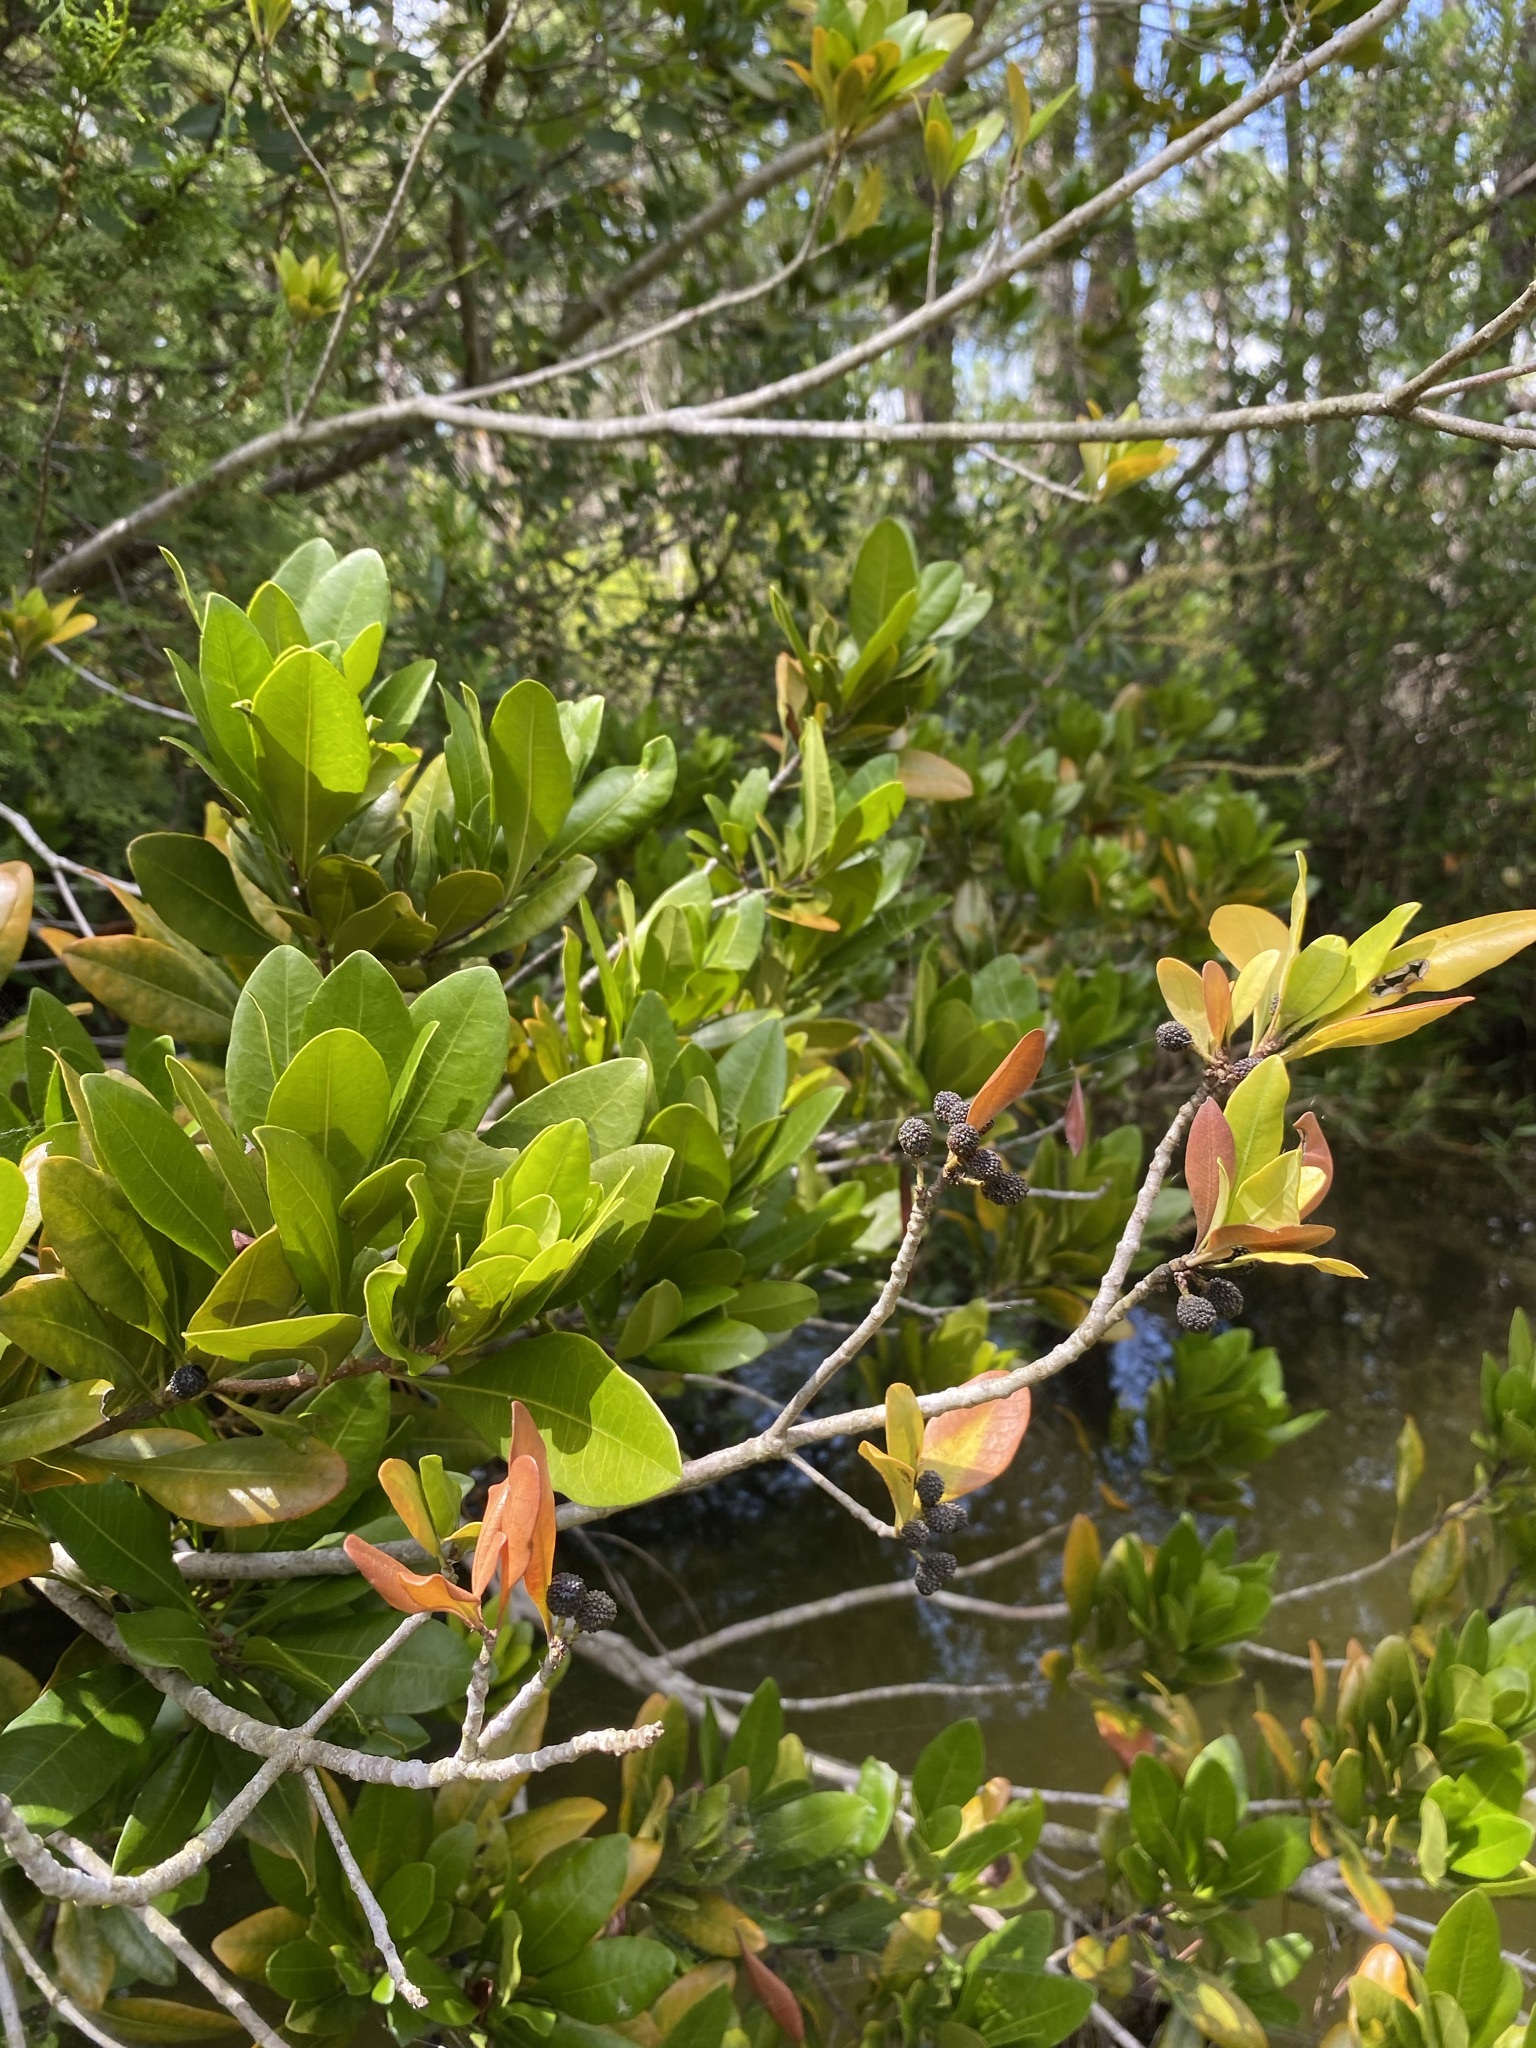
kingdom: Plantae
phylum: Tracheophyta
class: Magnoliopsida
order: Fagales
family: Myricaceae
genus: Morella
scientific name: Morella inodora
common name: Candle-berry
